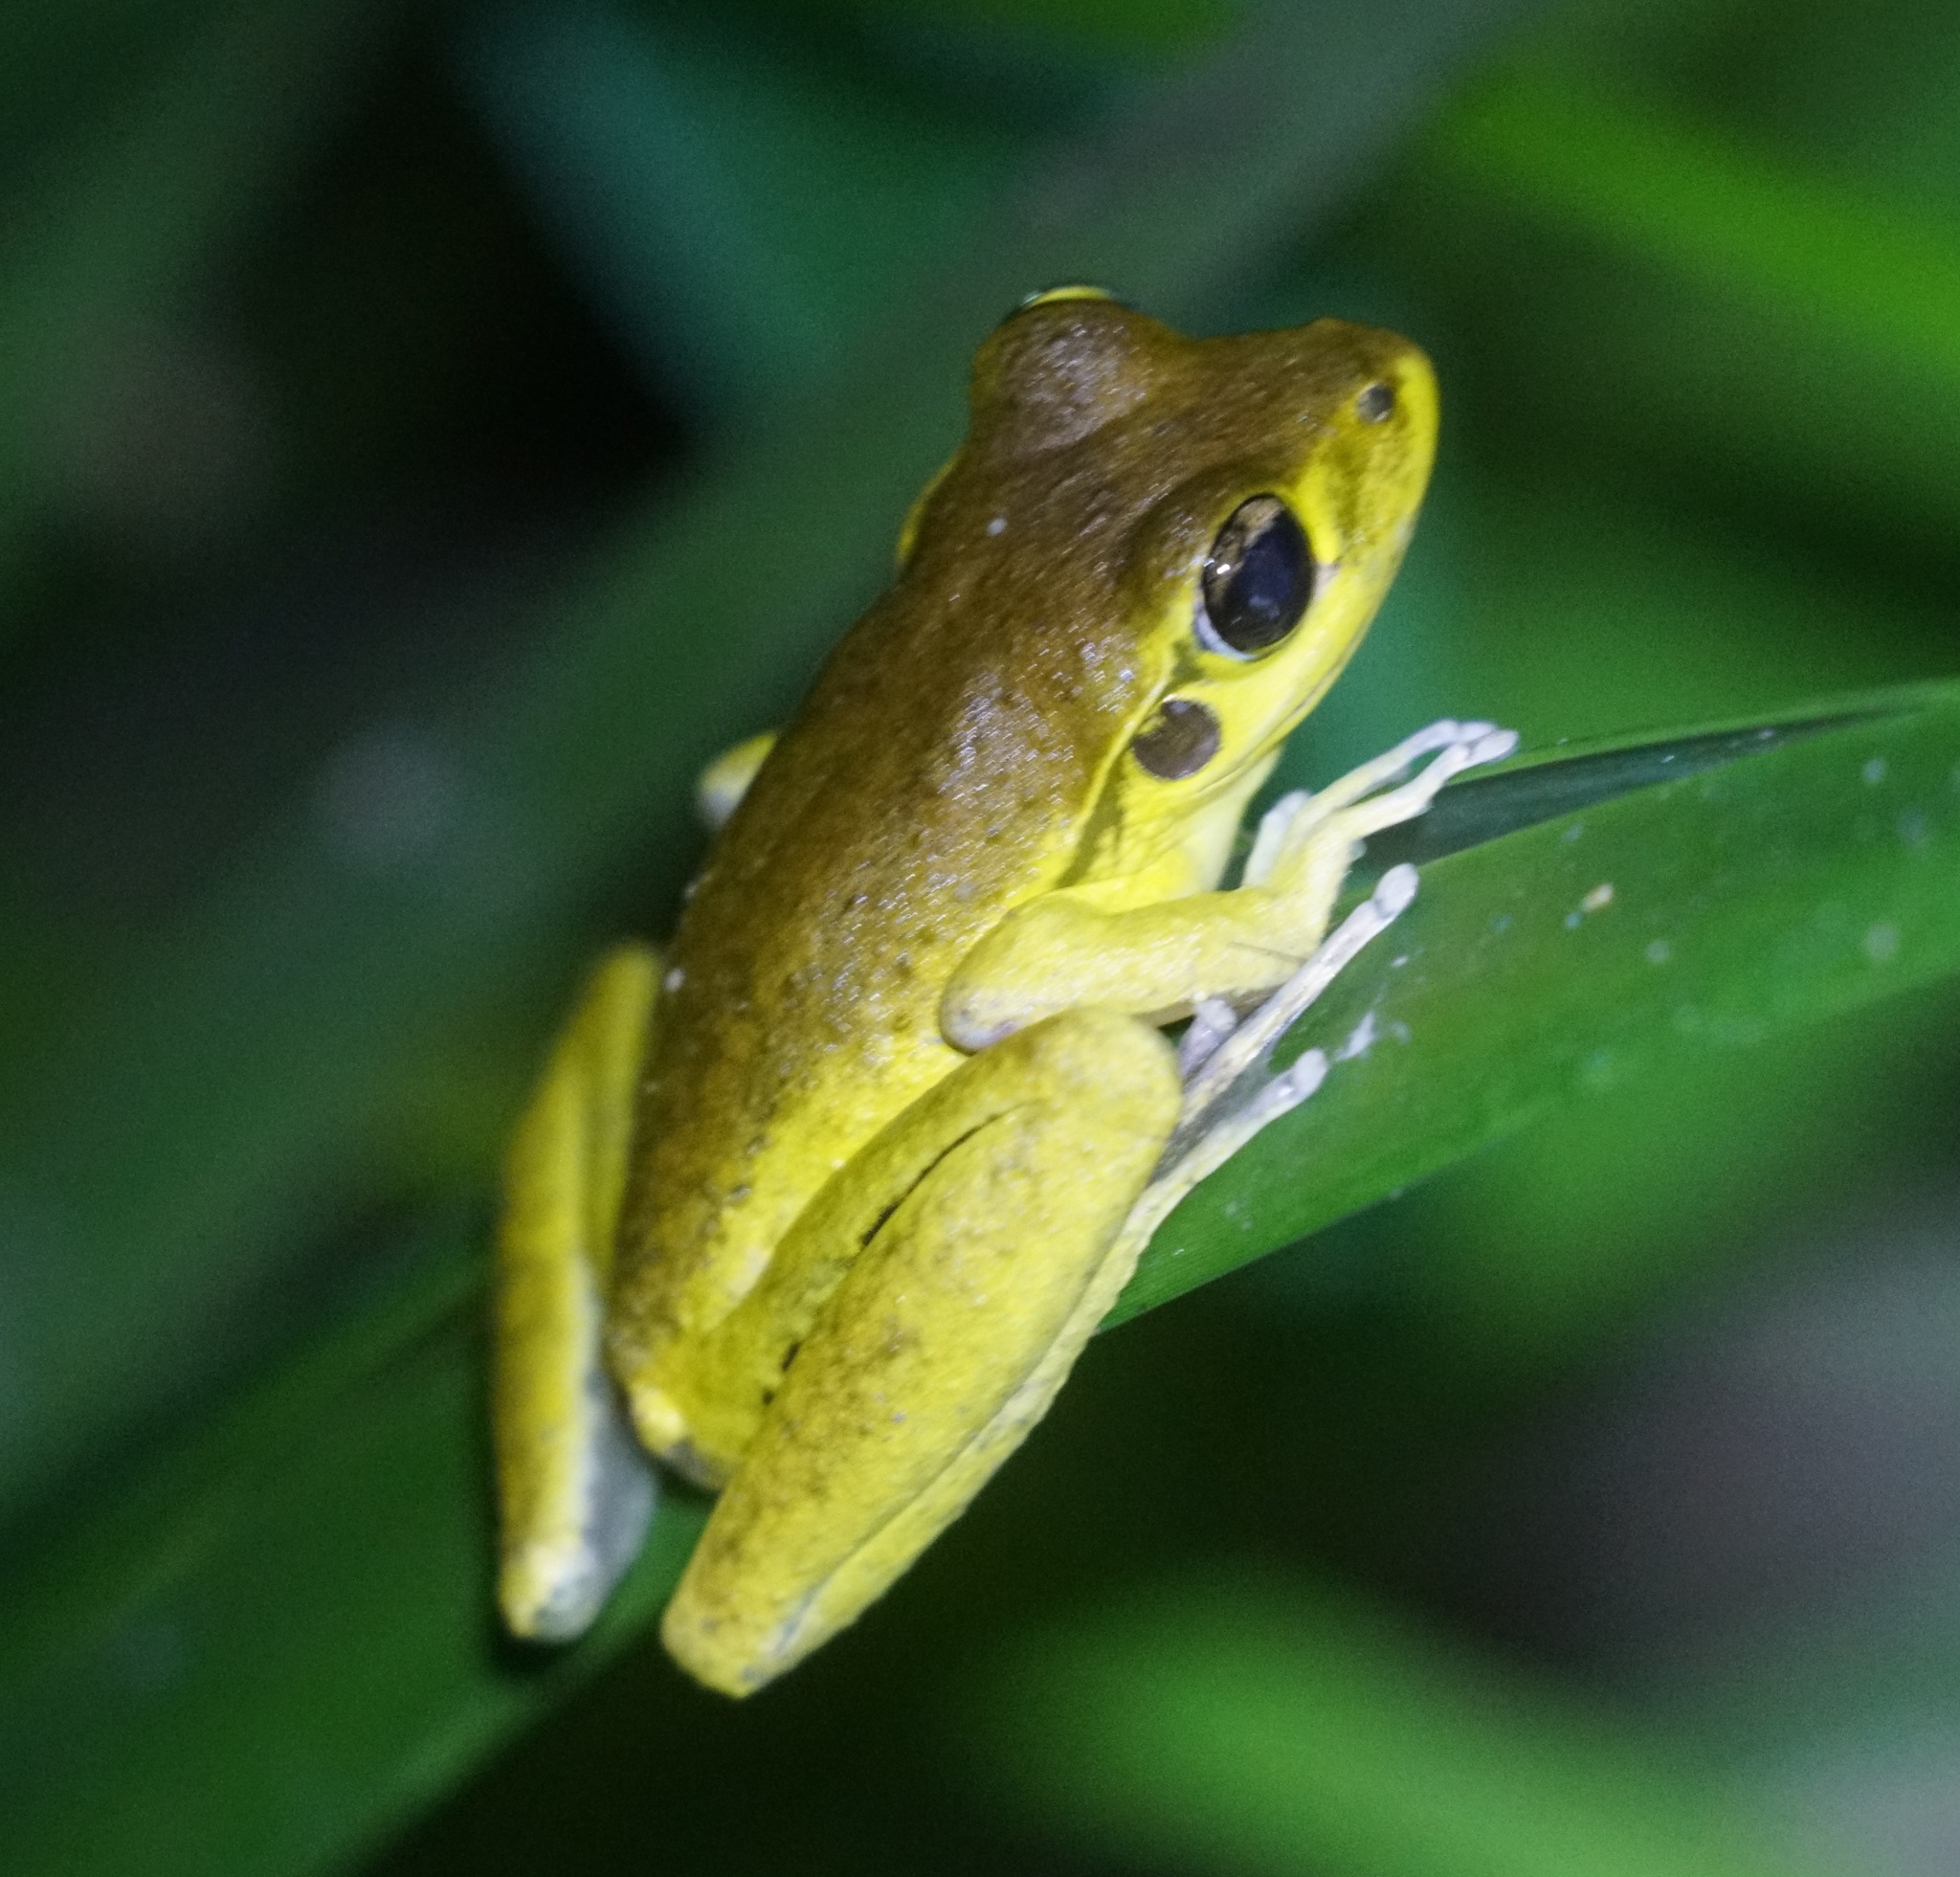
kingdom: Animalia
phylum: Chordata
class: Amphibia
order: Anura
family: Hylidae
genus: Ranoidea
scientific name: Ranoidea
